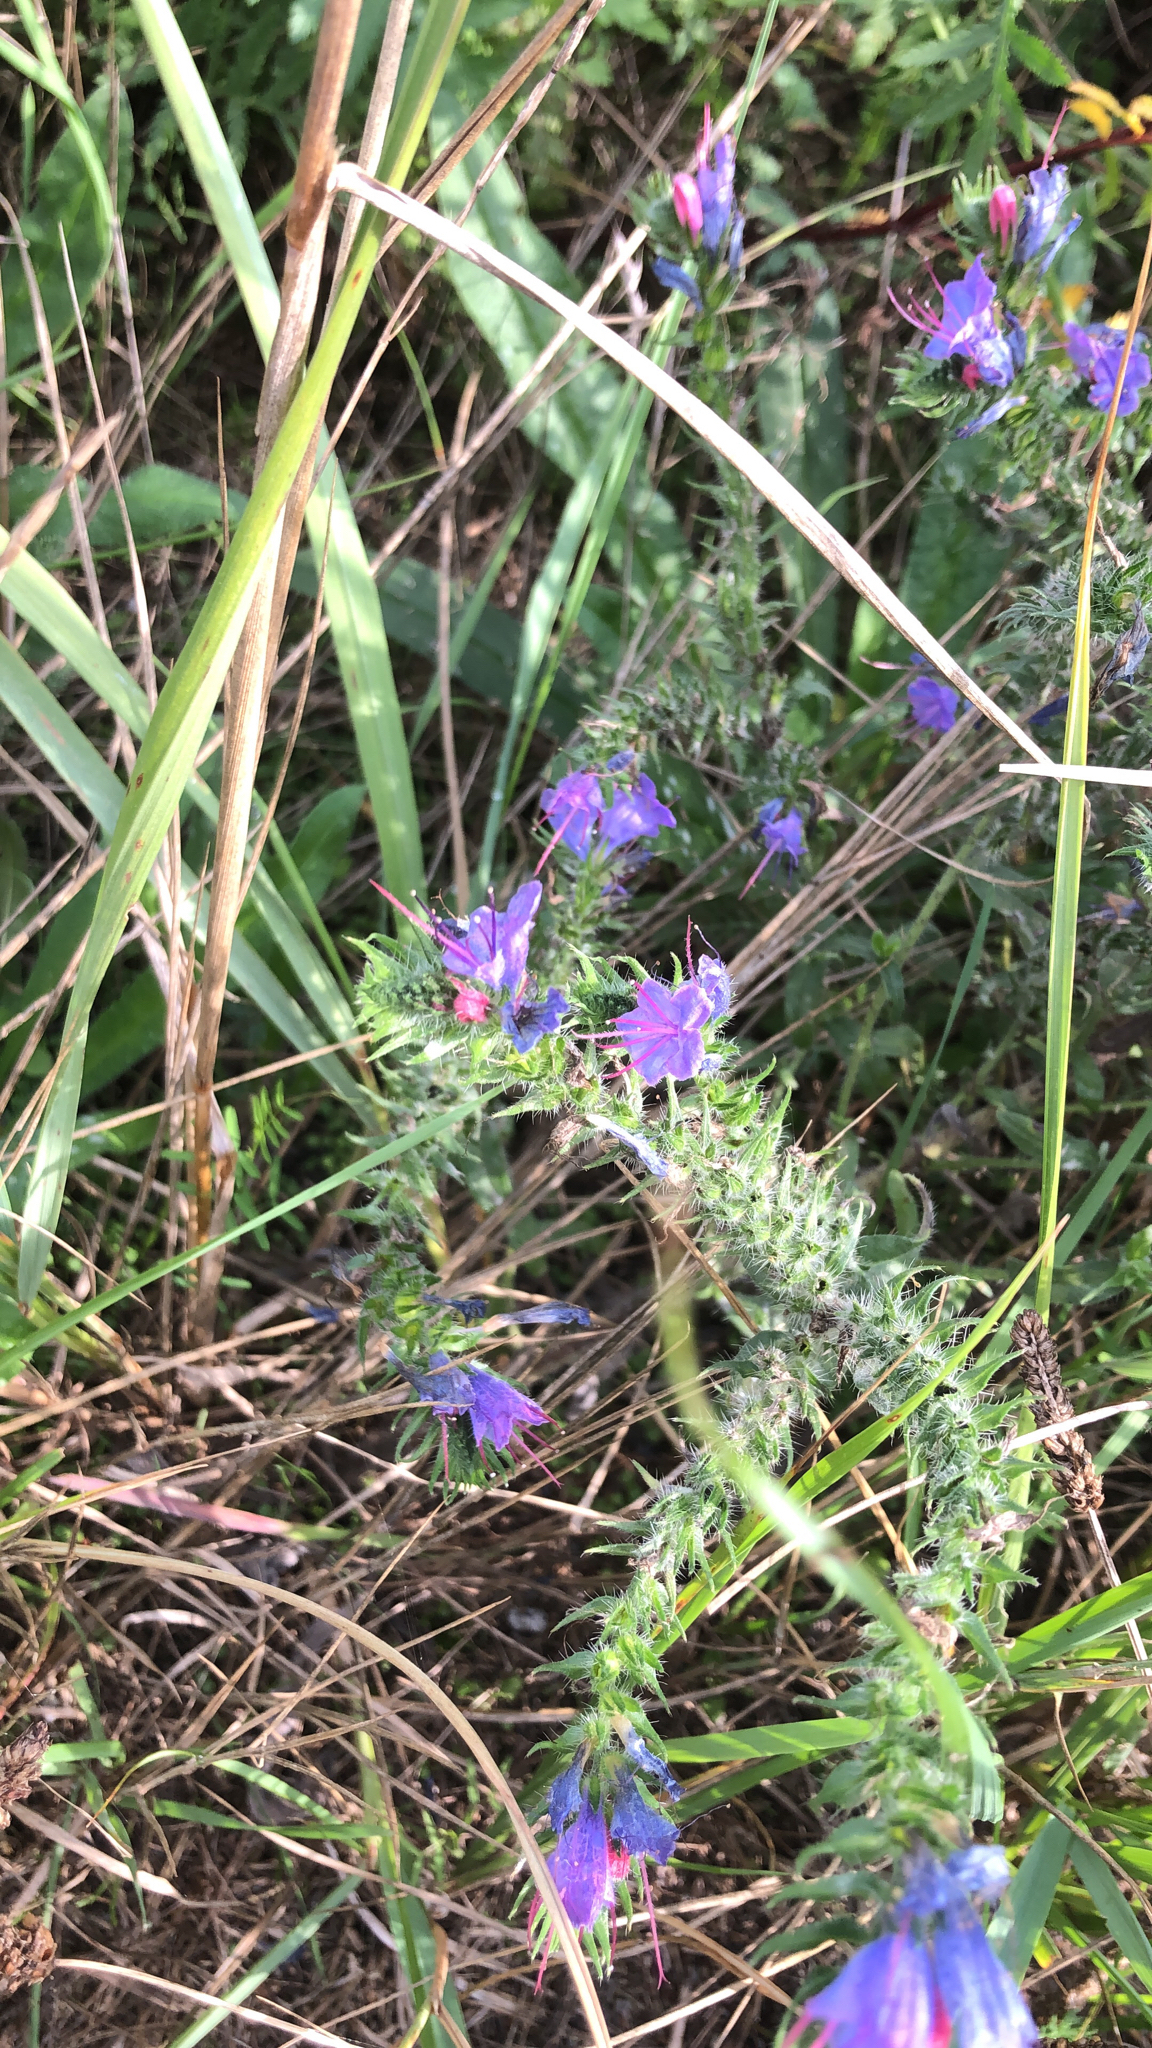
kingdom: Plantae
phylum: Tracheophyta
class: Magnoliopsida
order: Boraginales
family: Boraginaceae
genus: Echium
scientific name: Echium vulgare
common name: Common viper's bugloss
